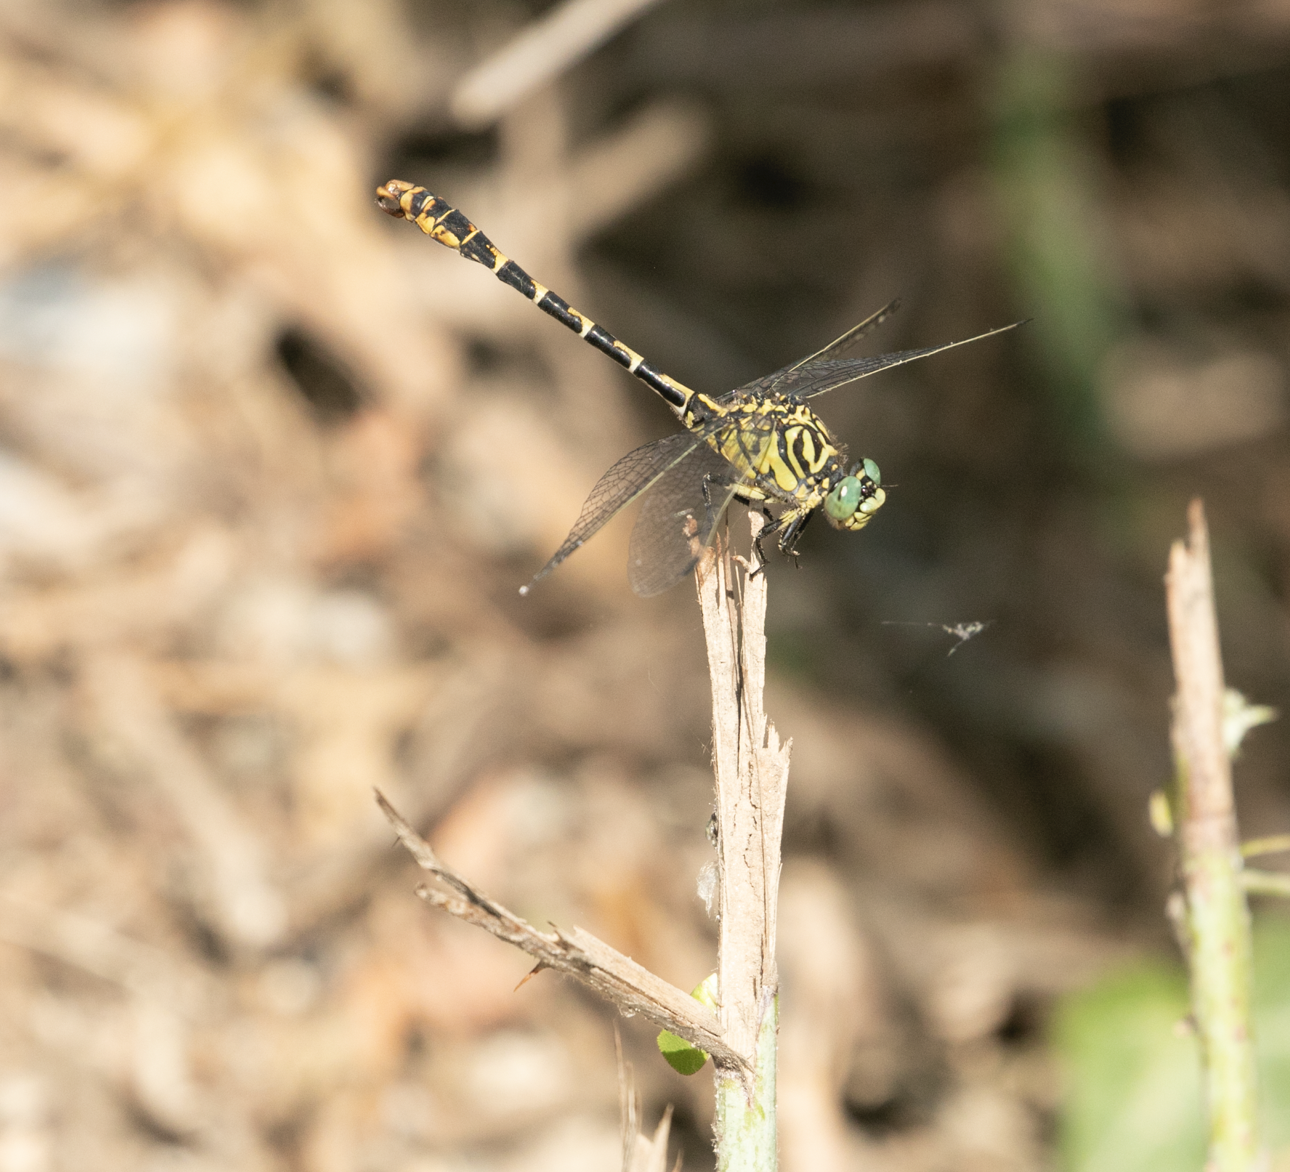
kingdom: Animalia
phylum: Arthropoda
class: Insecta
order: Odonata
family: Gomphidae
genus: Onychogomphus
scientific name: Onychogomphus forcipatus
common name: Small pincertail
